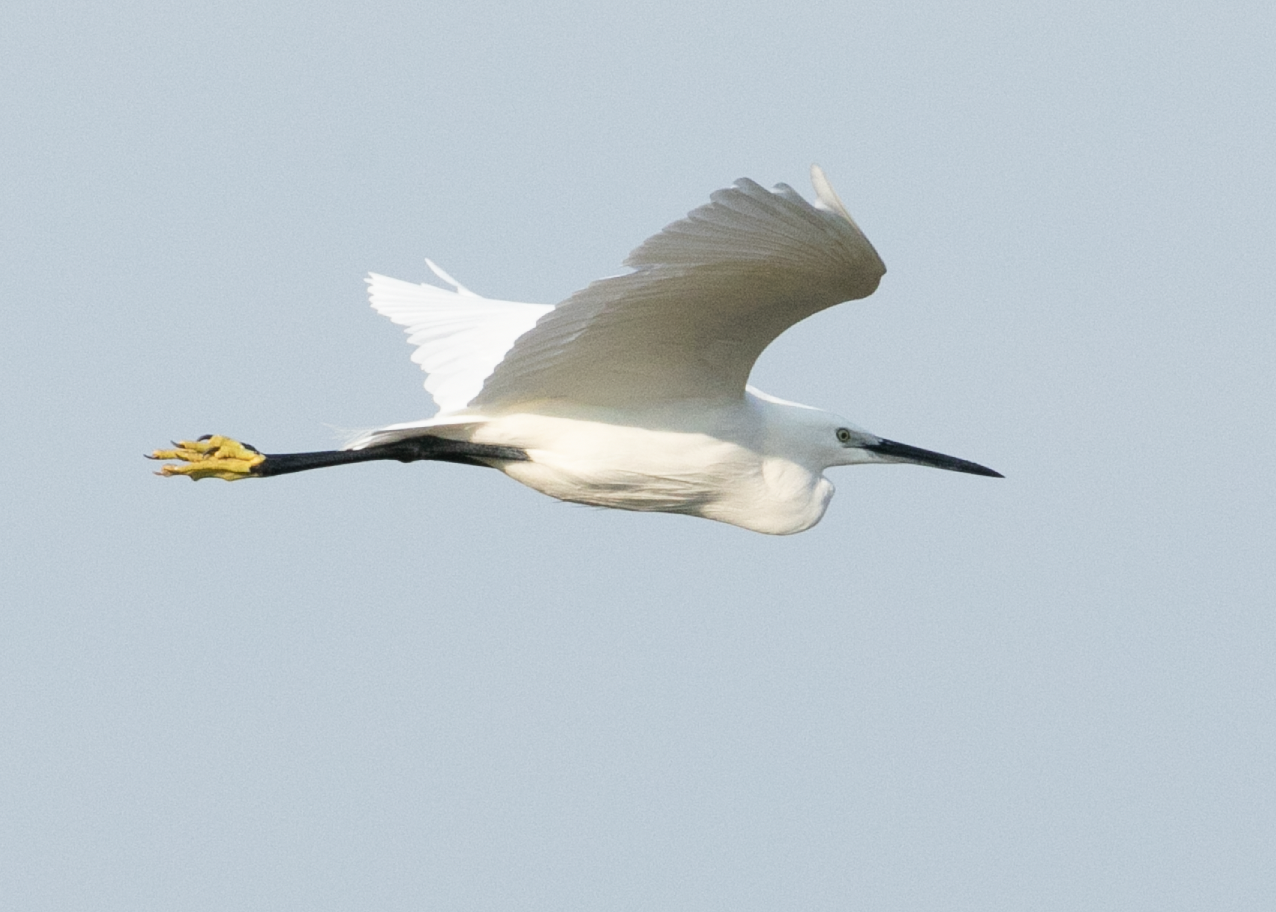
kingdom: Animalia
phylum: Chordata
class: Aves
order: Pelecaniformes
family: Ardeidae
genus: Egretta
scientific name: Egretta garzetta
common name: Little egret
